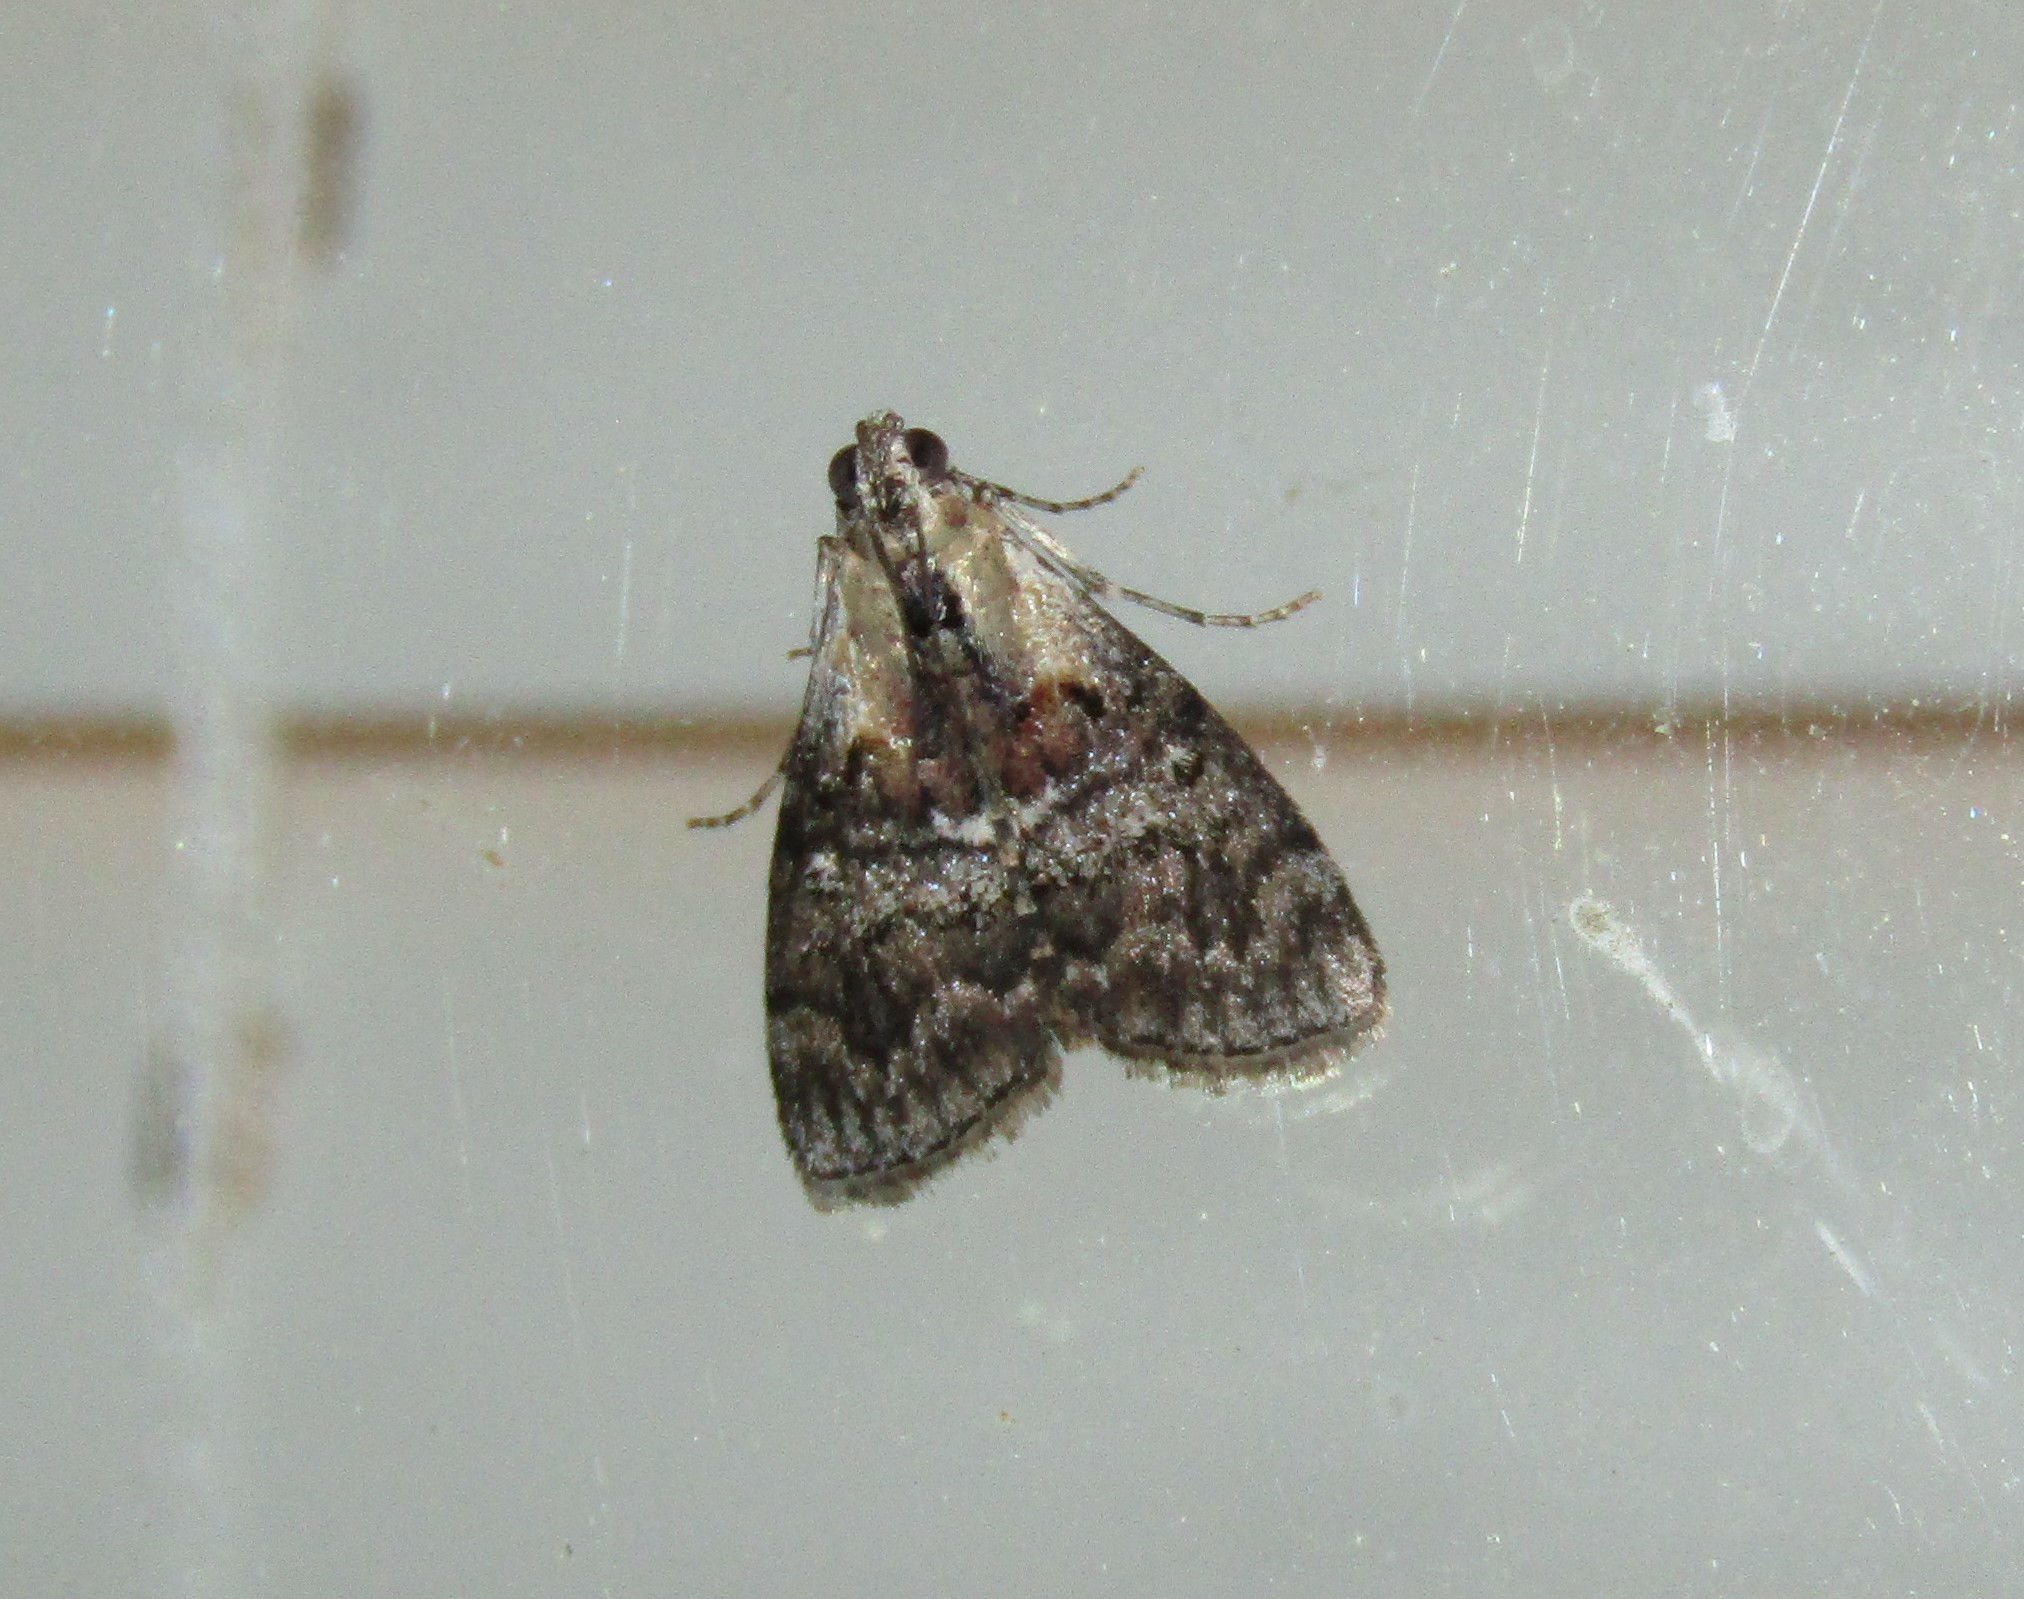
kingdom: Animalia
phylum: Arthropoda
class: Insecta
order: Lepidoptera
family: Pyralidae
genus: Pococera
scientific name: Pococera expandens
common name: Striped oak webworm moth
